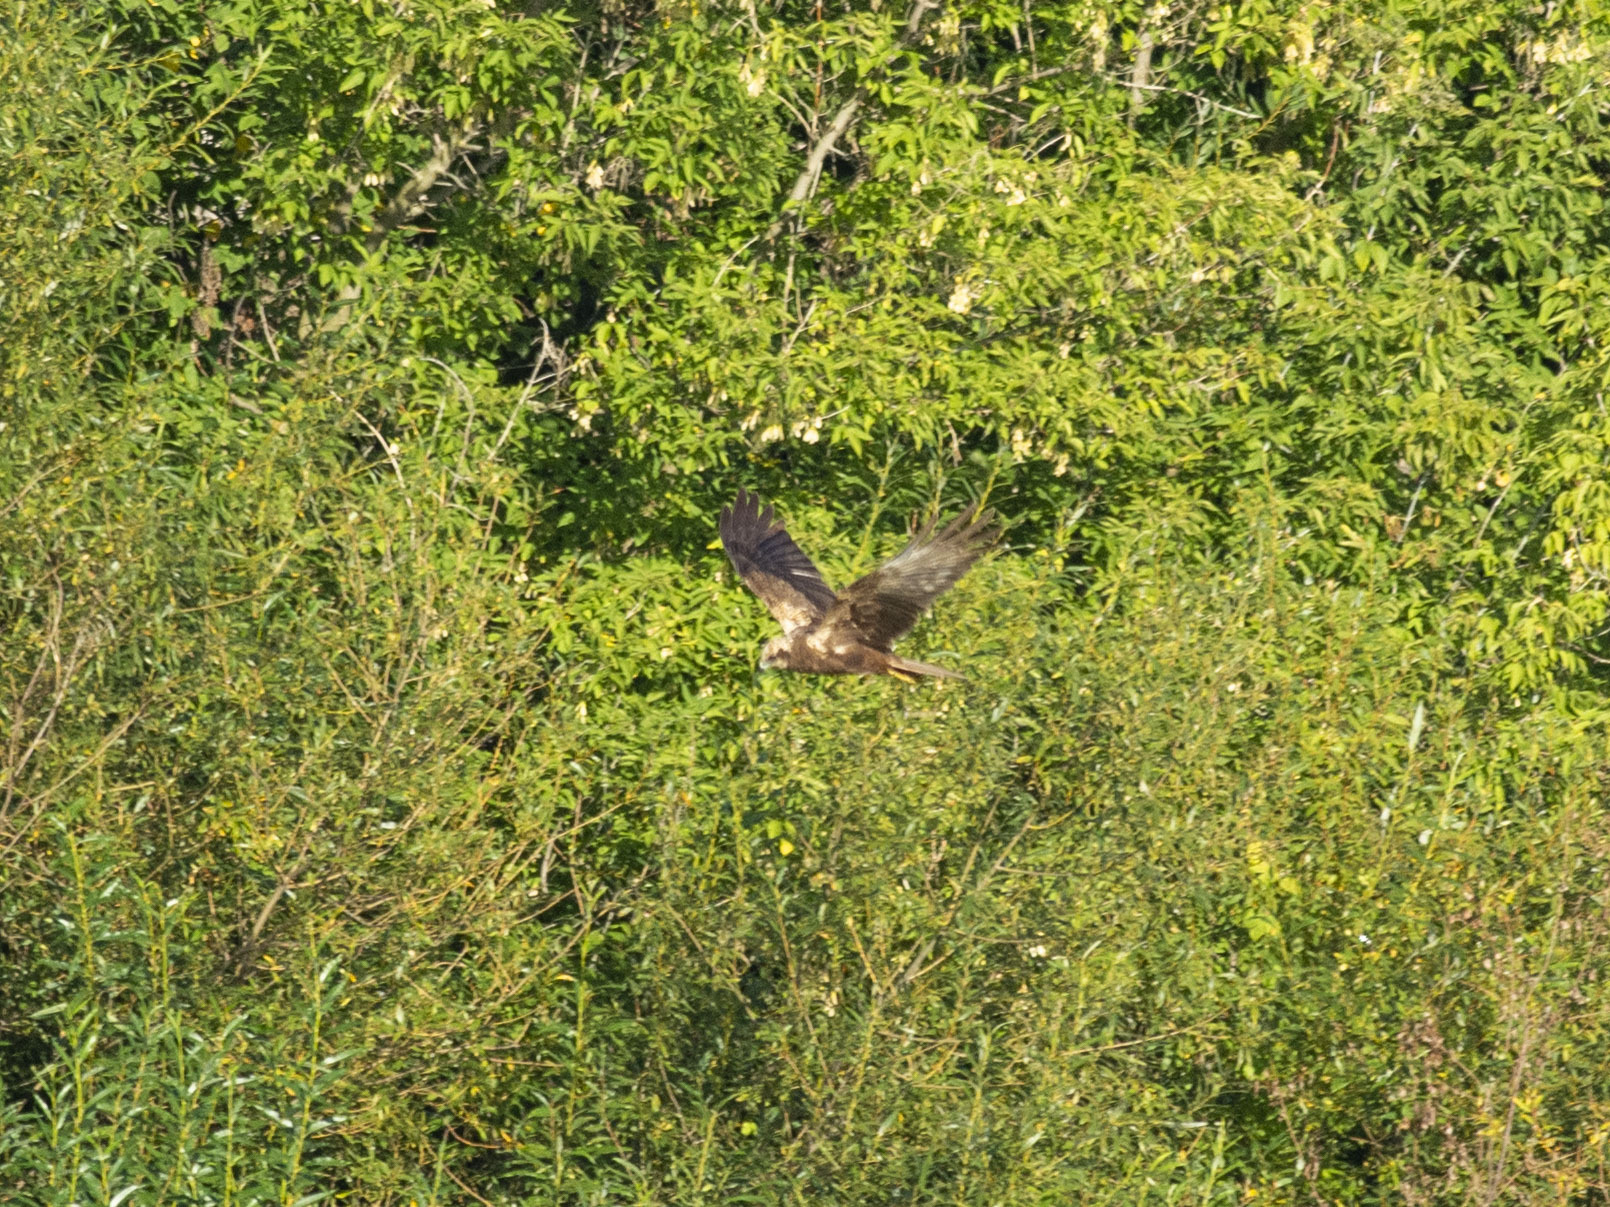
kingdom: Animalia
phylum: Chordata
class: Aves
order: Accipitriformes
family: Accipitridae
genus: Circus
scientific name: Circus aeruginosus
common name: Western marsh harrier
